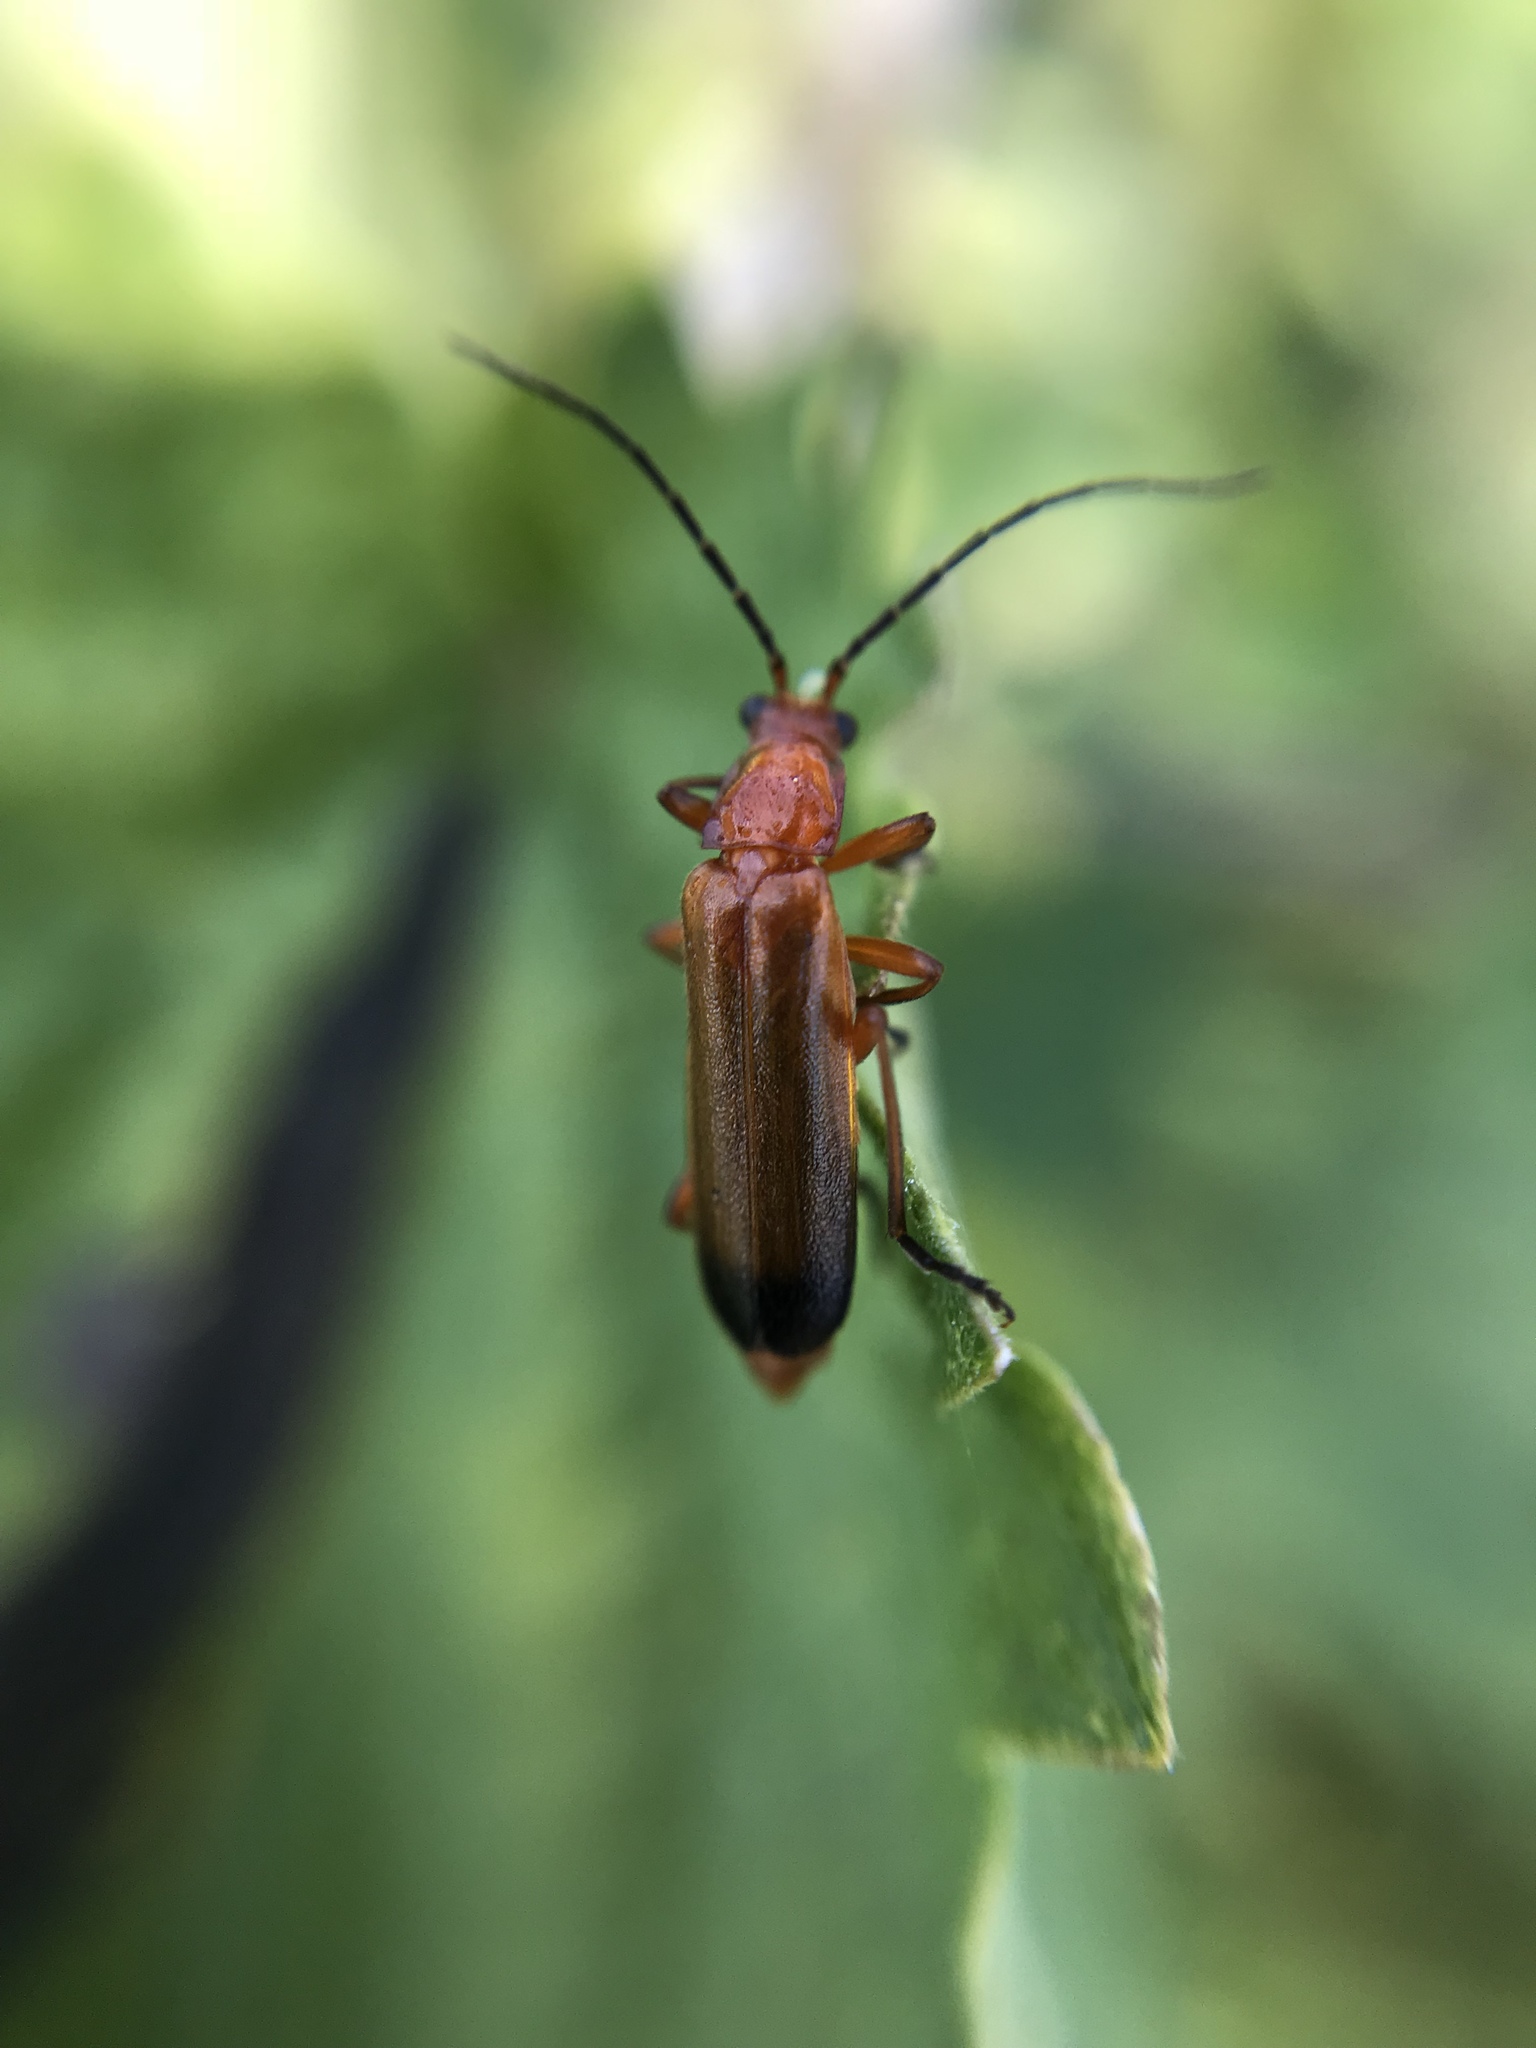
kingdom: Animalia
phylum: Arthropoda
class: Insecta
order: Coleoptera
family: Cantharidae
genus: Rhagonycha
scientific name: Rhagonycha fulva
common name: Common red soldier beetle
